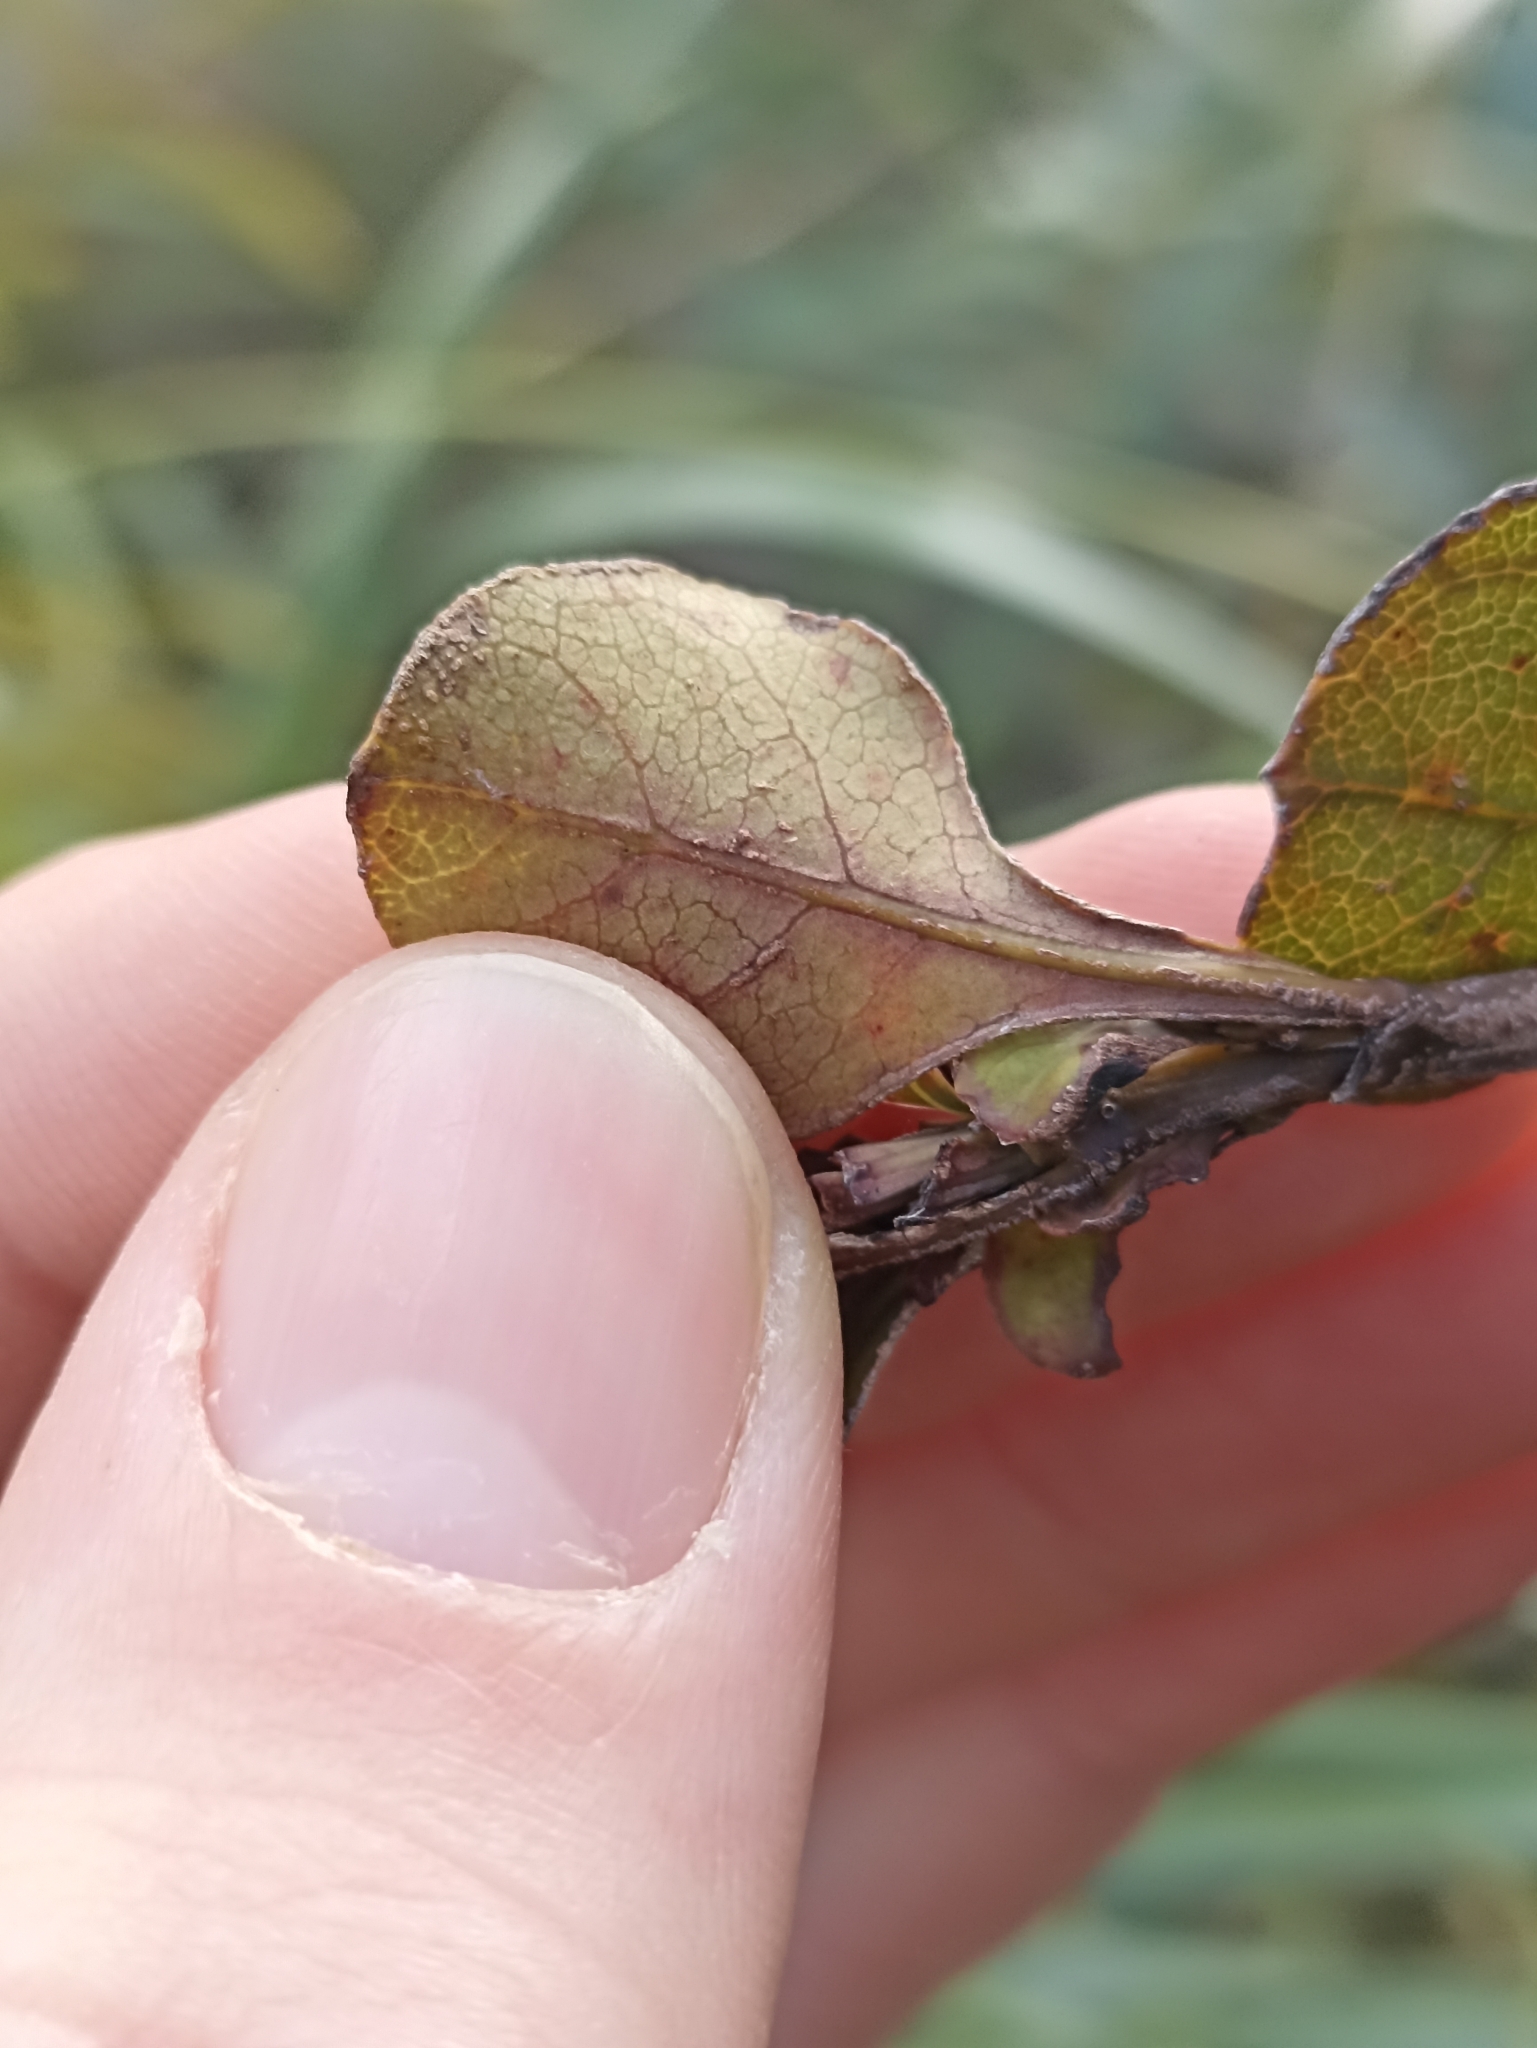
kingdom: Plantae
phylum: Tracheophyta
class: Magnoliopsida
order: Gentianales
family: Rubiaceae
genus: Coprosma
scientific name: Coprosma arborea
